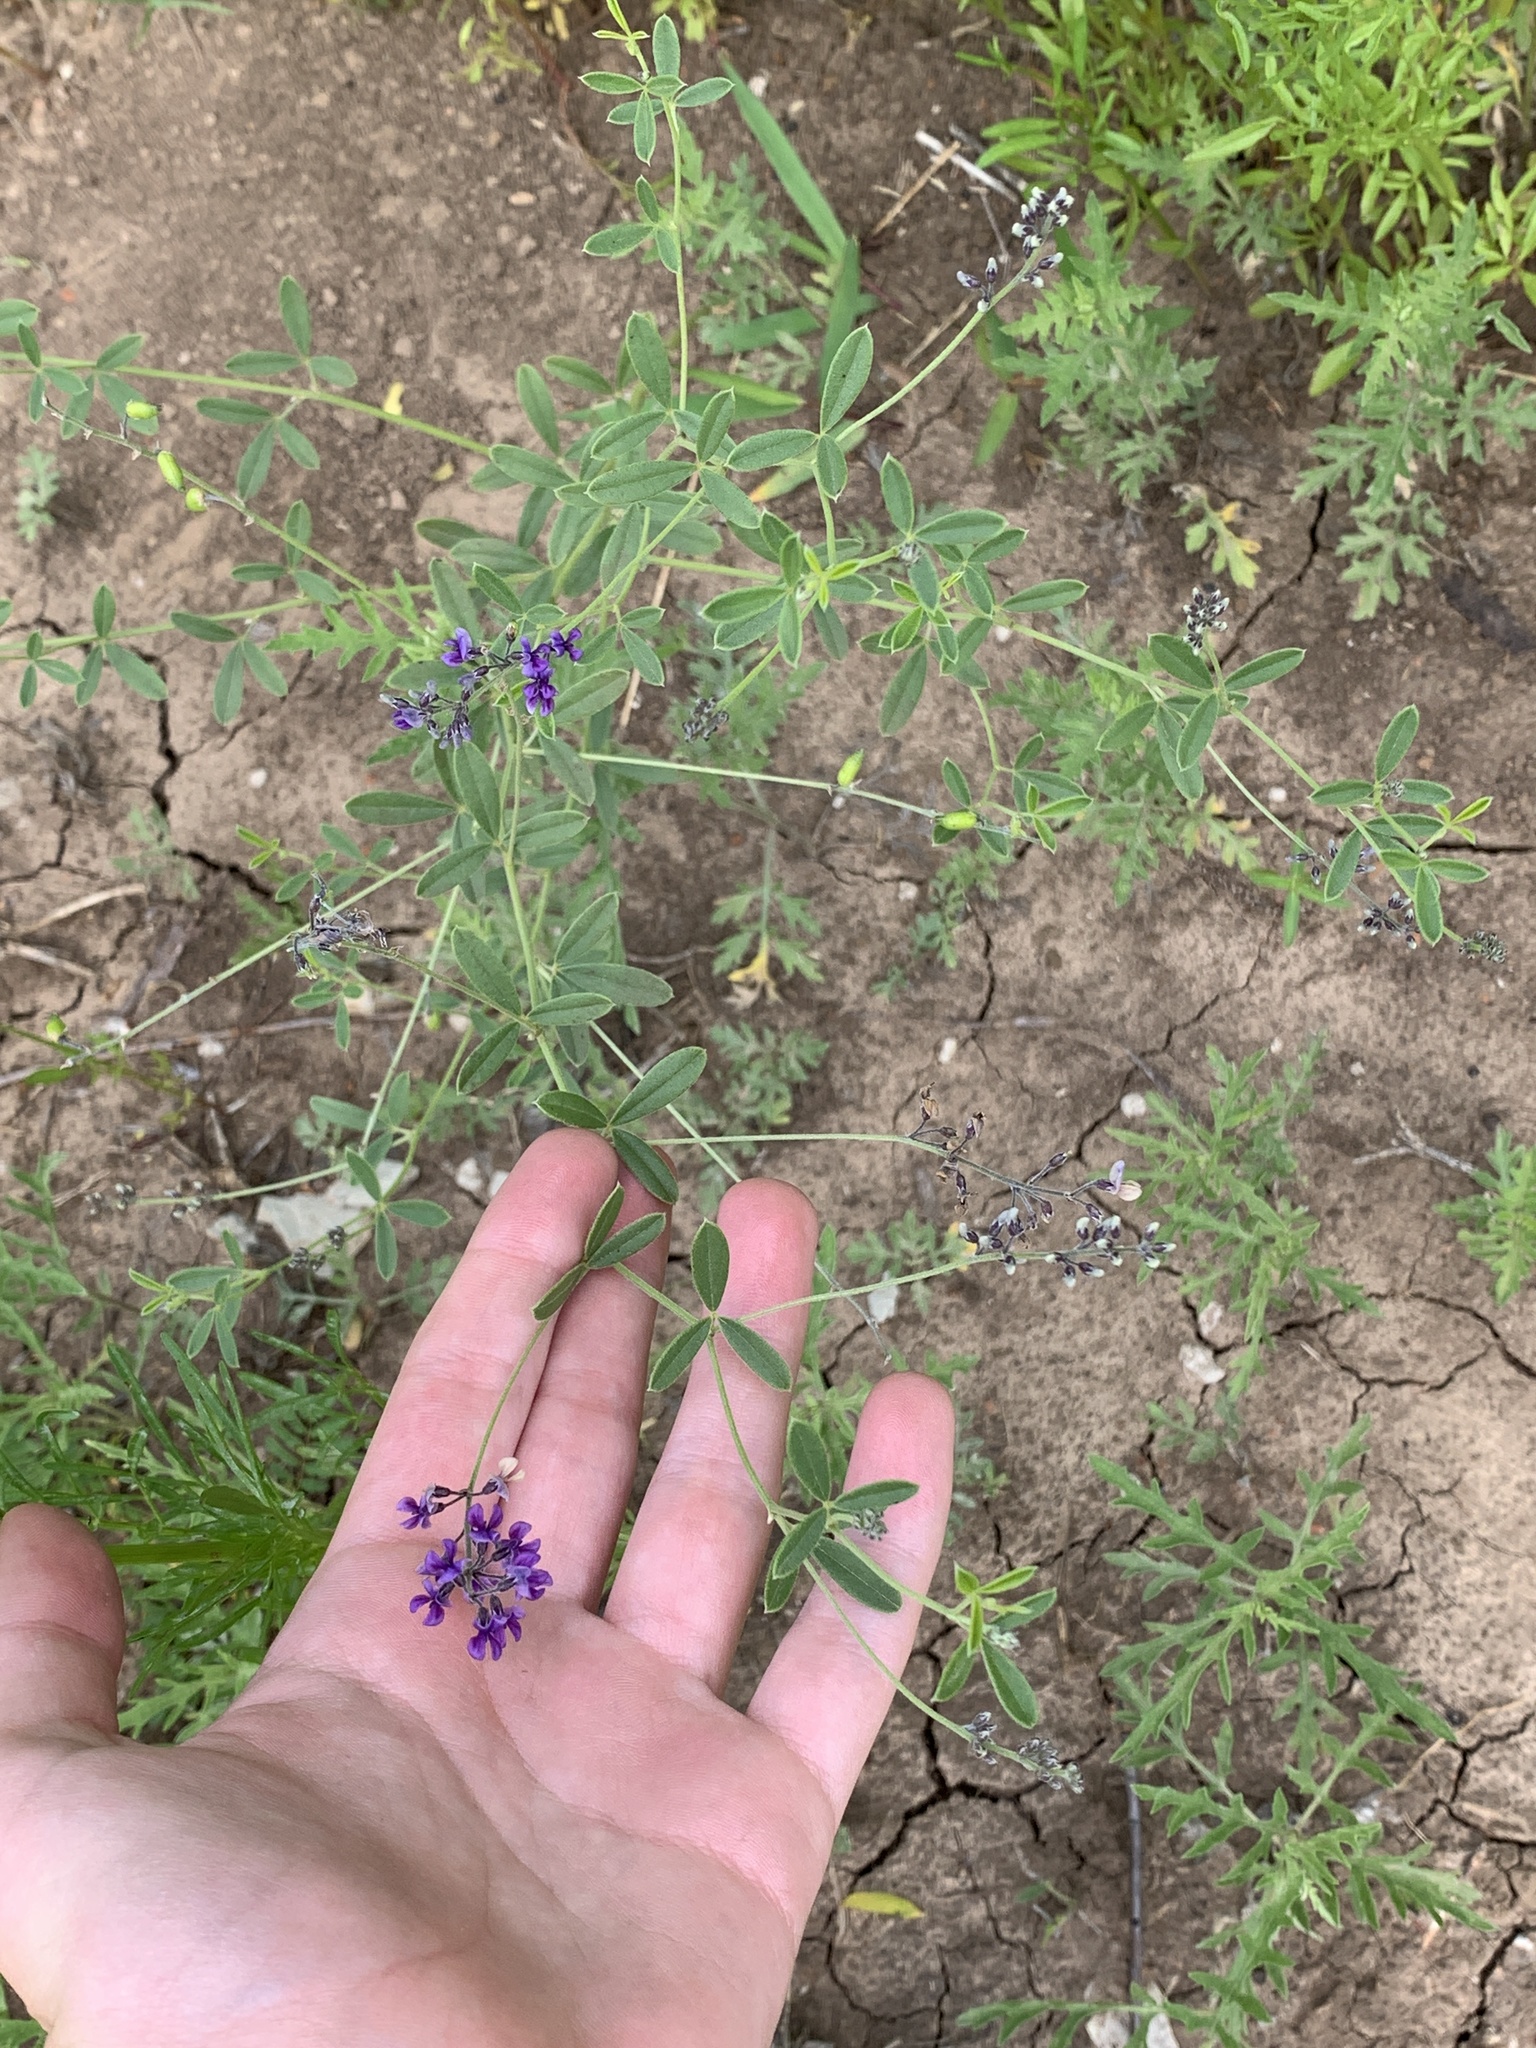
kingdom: Plantae
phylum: Tracheophyta
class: Magnoliopsida
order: Fabales
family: Fabaceae
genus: Pediomelum
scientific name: Pediomelum tenuiflorum
